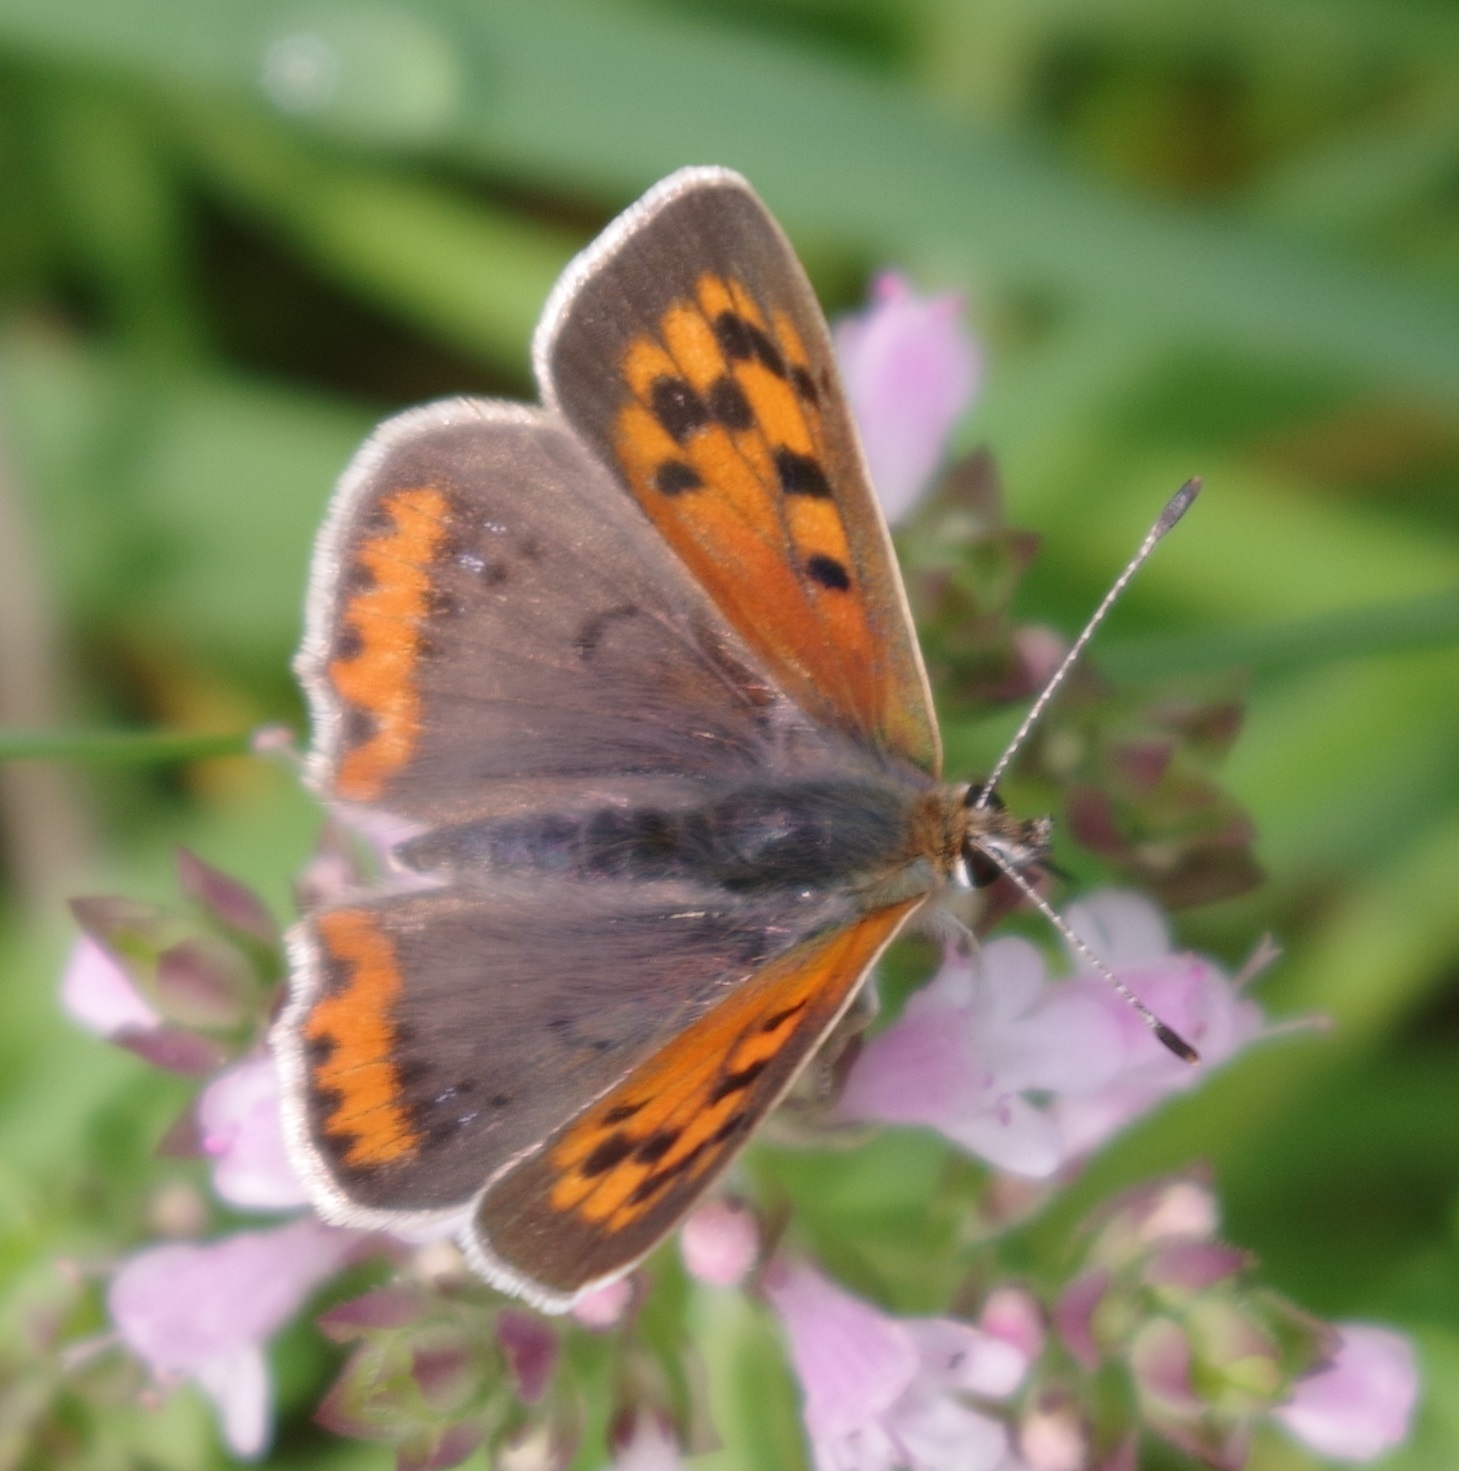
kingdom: Animalia
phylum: Arthropoda
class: Insecta
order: Lepidoptera
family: Lycaenidae
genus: Lycaena
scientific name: Lycaena phlaeas
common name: Small copper
